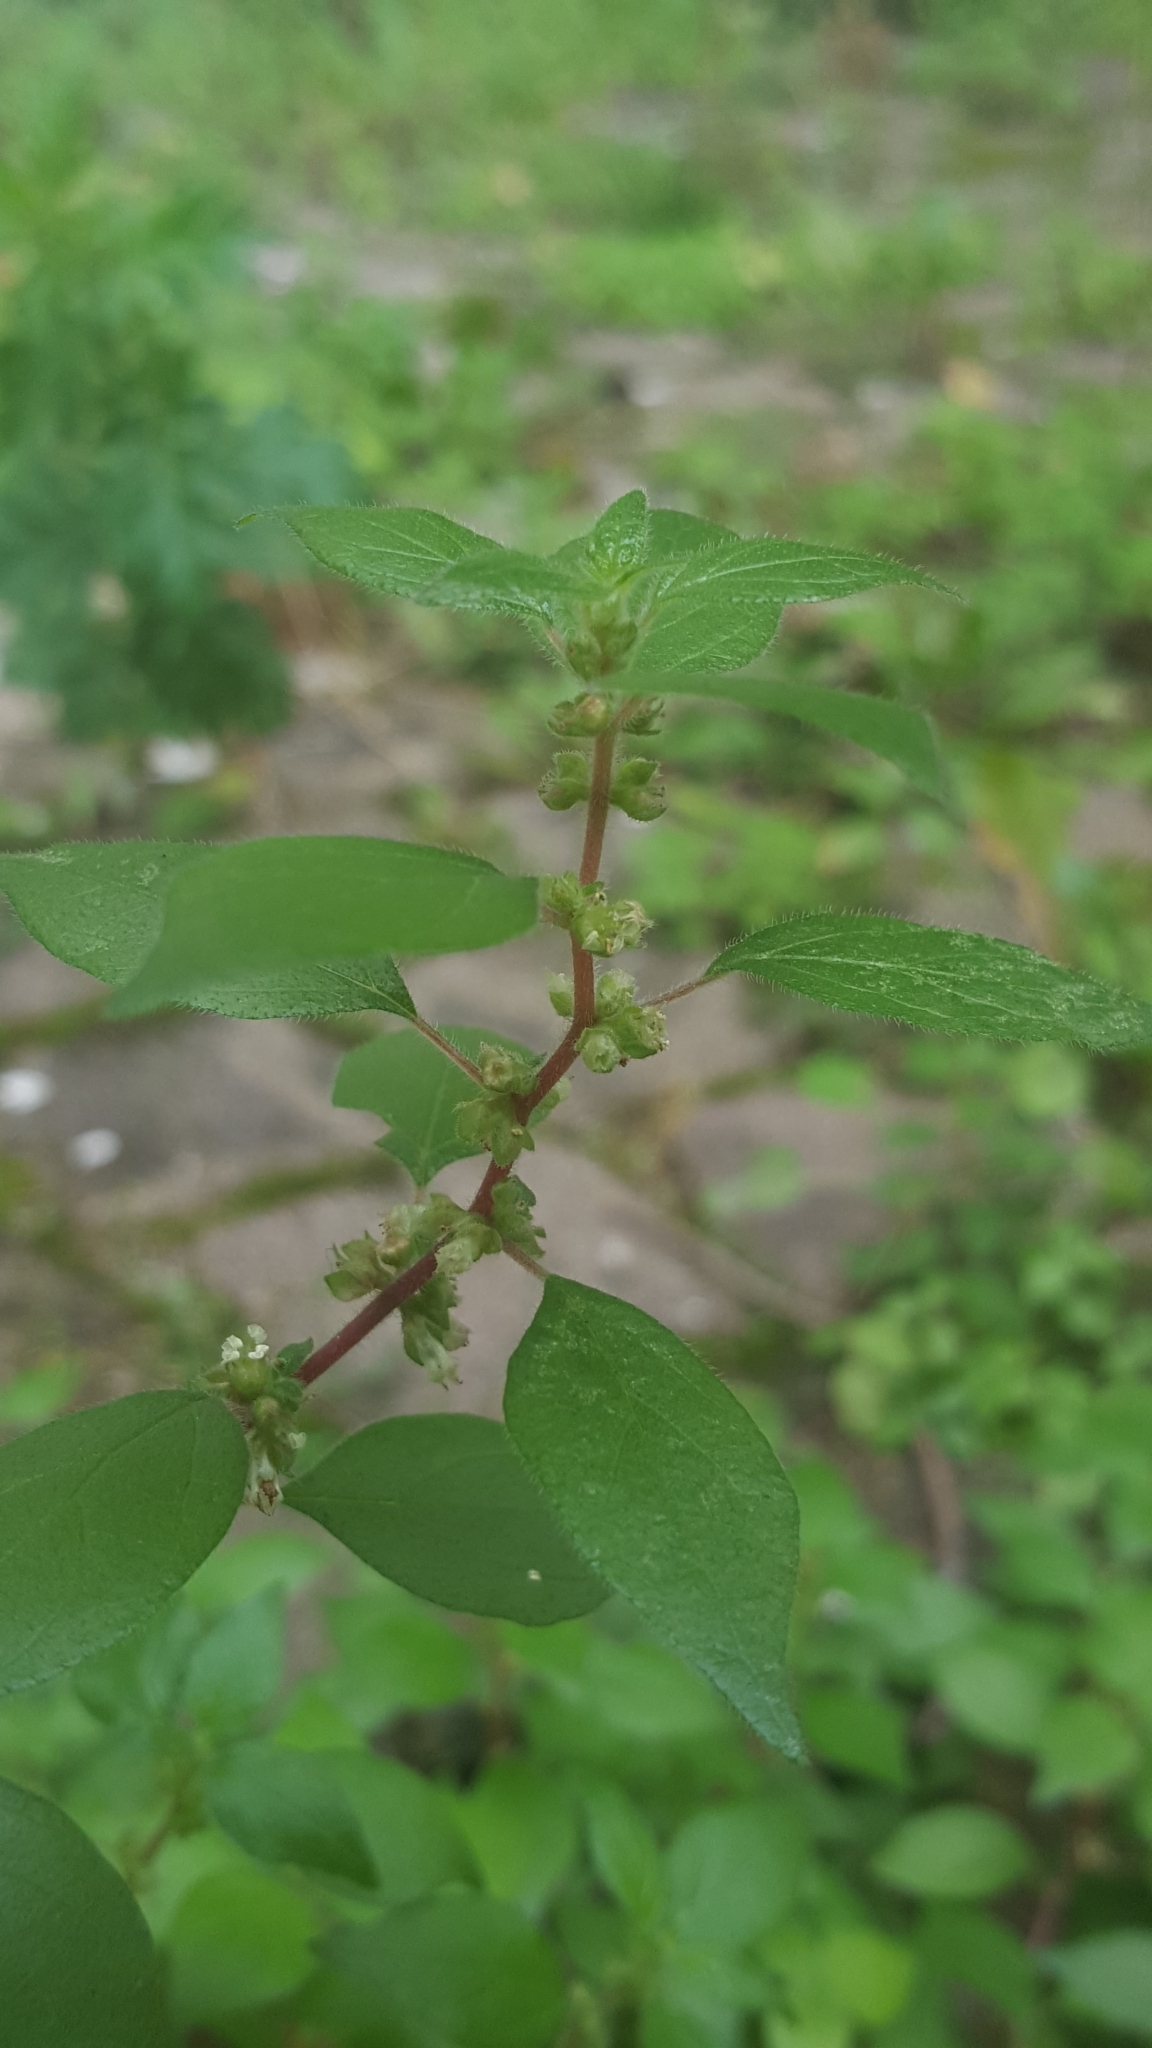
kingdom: Plantae
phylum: Tracheophyta
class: Magnoliopsida
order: Rosales
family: Urticaceae
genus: Parietaria
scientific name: Parietaria judaica
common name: Pellitory-of-the-wall
